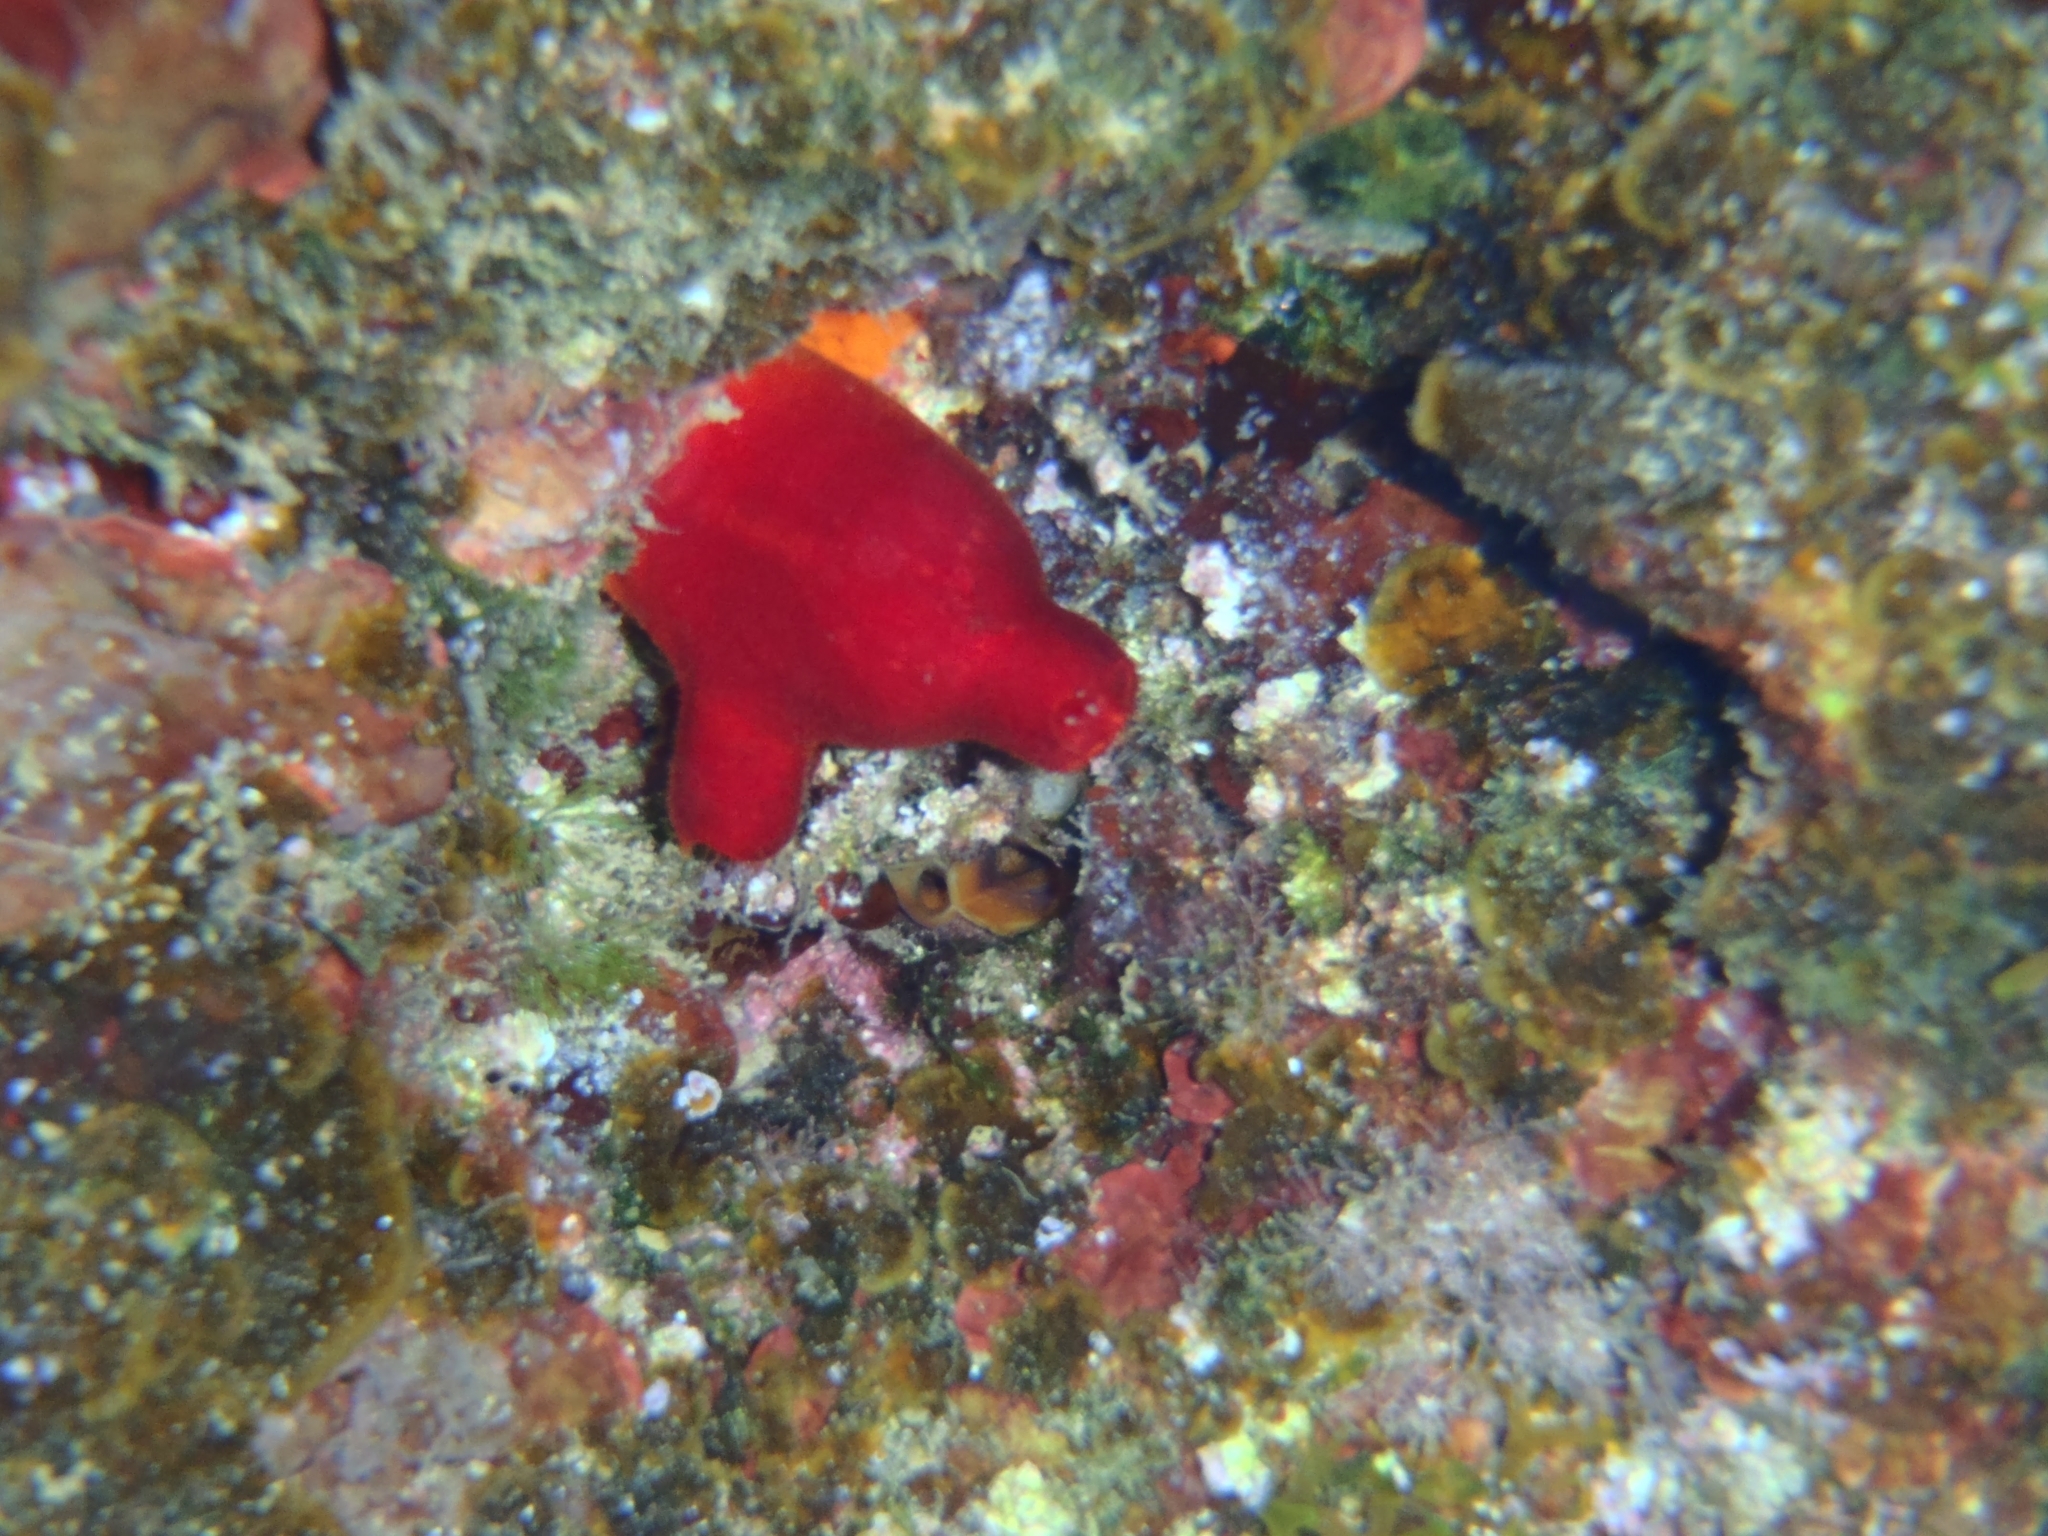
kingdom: Animalia
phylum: Chordata
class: Ascidiacea
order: Stolidobranchia
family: Pyuridae
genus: Halocynthia
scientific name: Halocynthia papillosa
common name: Red sea-squirt
